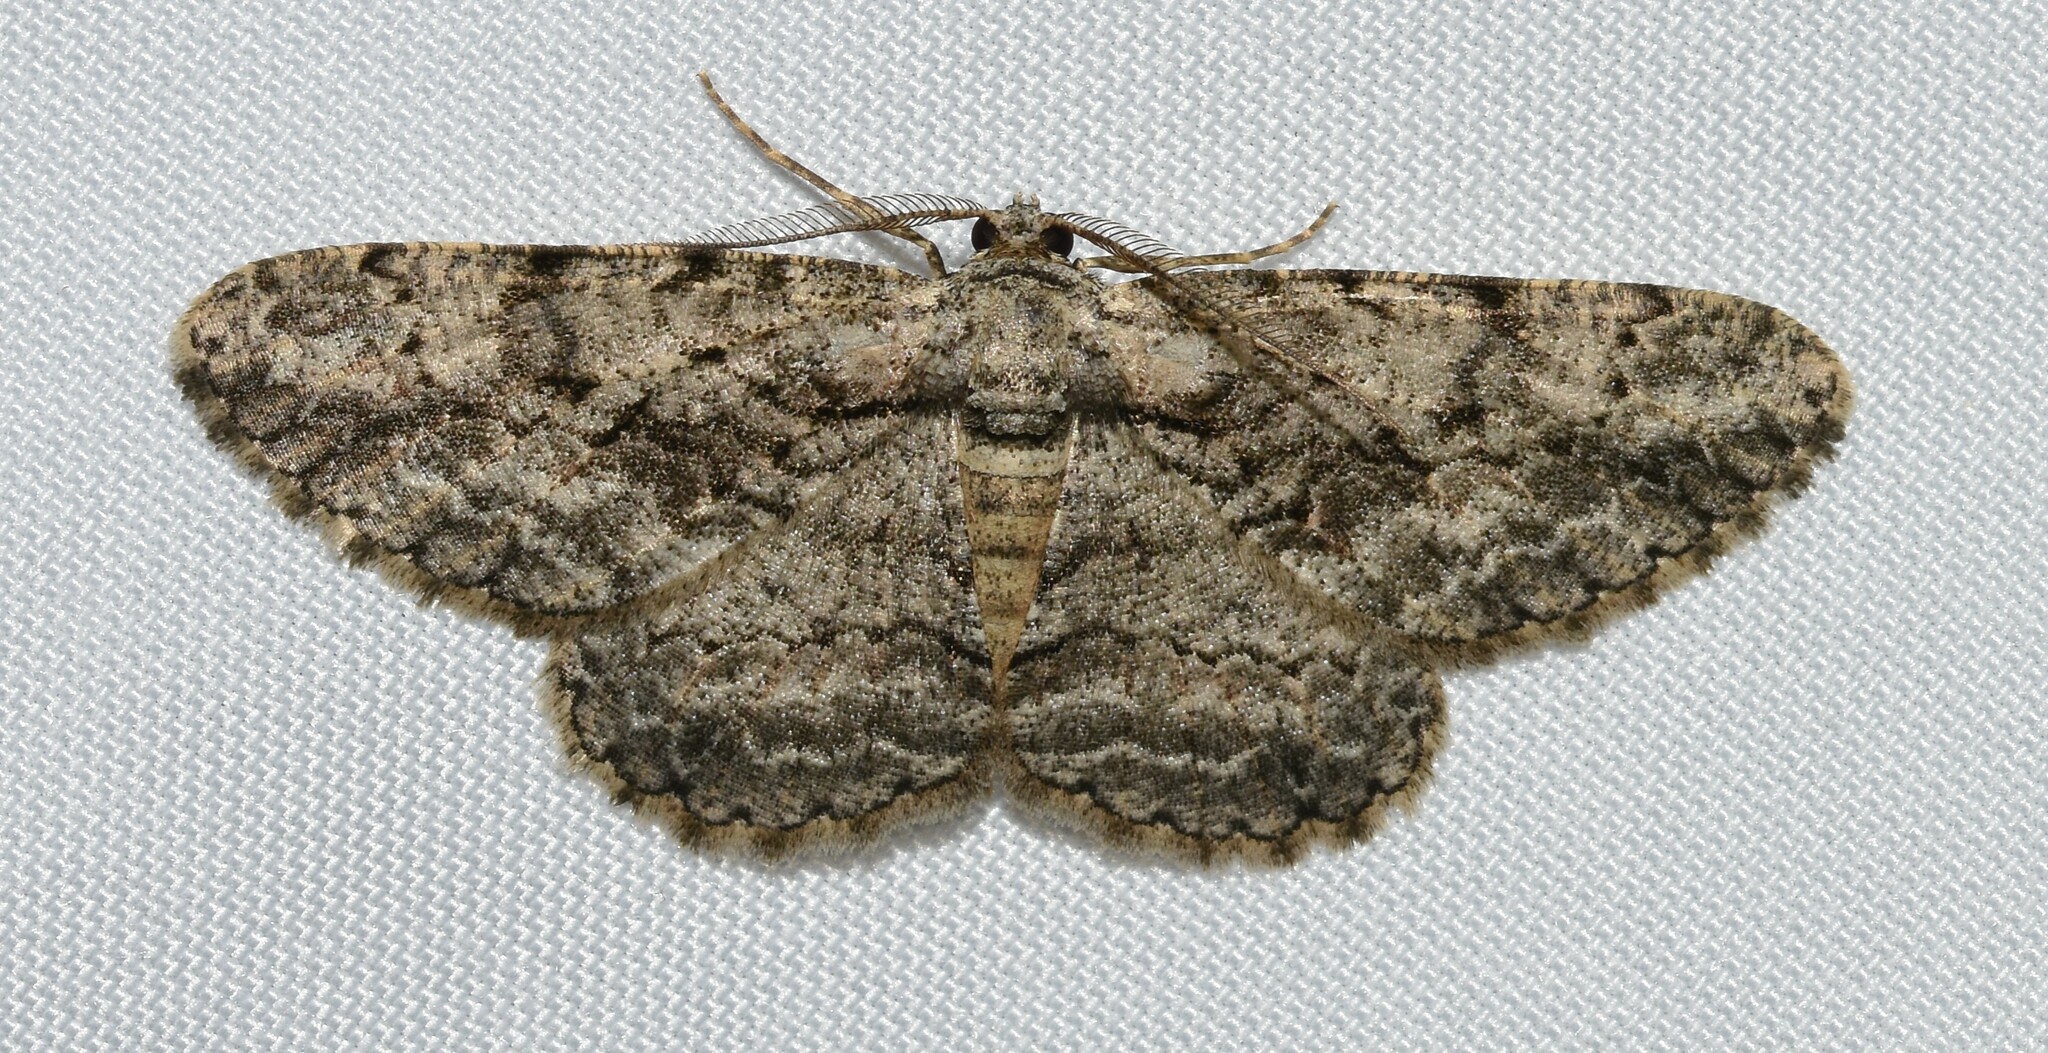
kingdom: Animalia
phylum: Arthropoda
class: Insecta
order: Lepidoptera
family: Geometridae
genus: Anavitrinella
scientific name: Anavitrinella pampinaria
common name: Common gray
